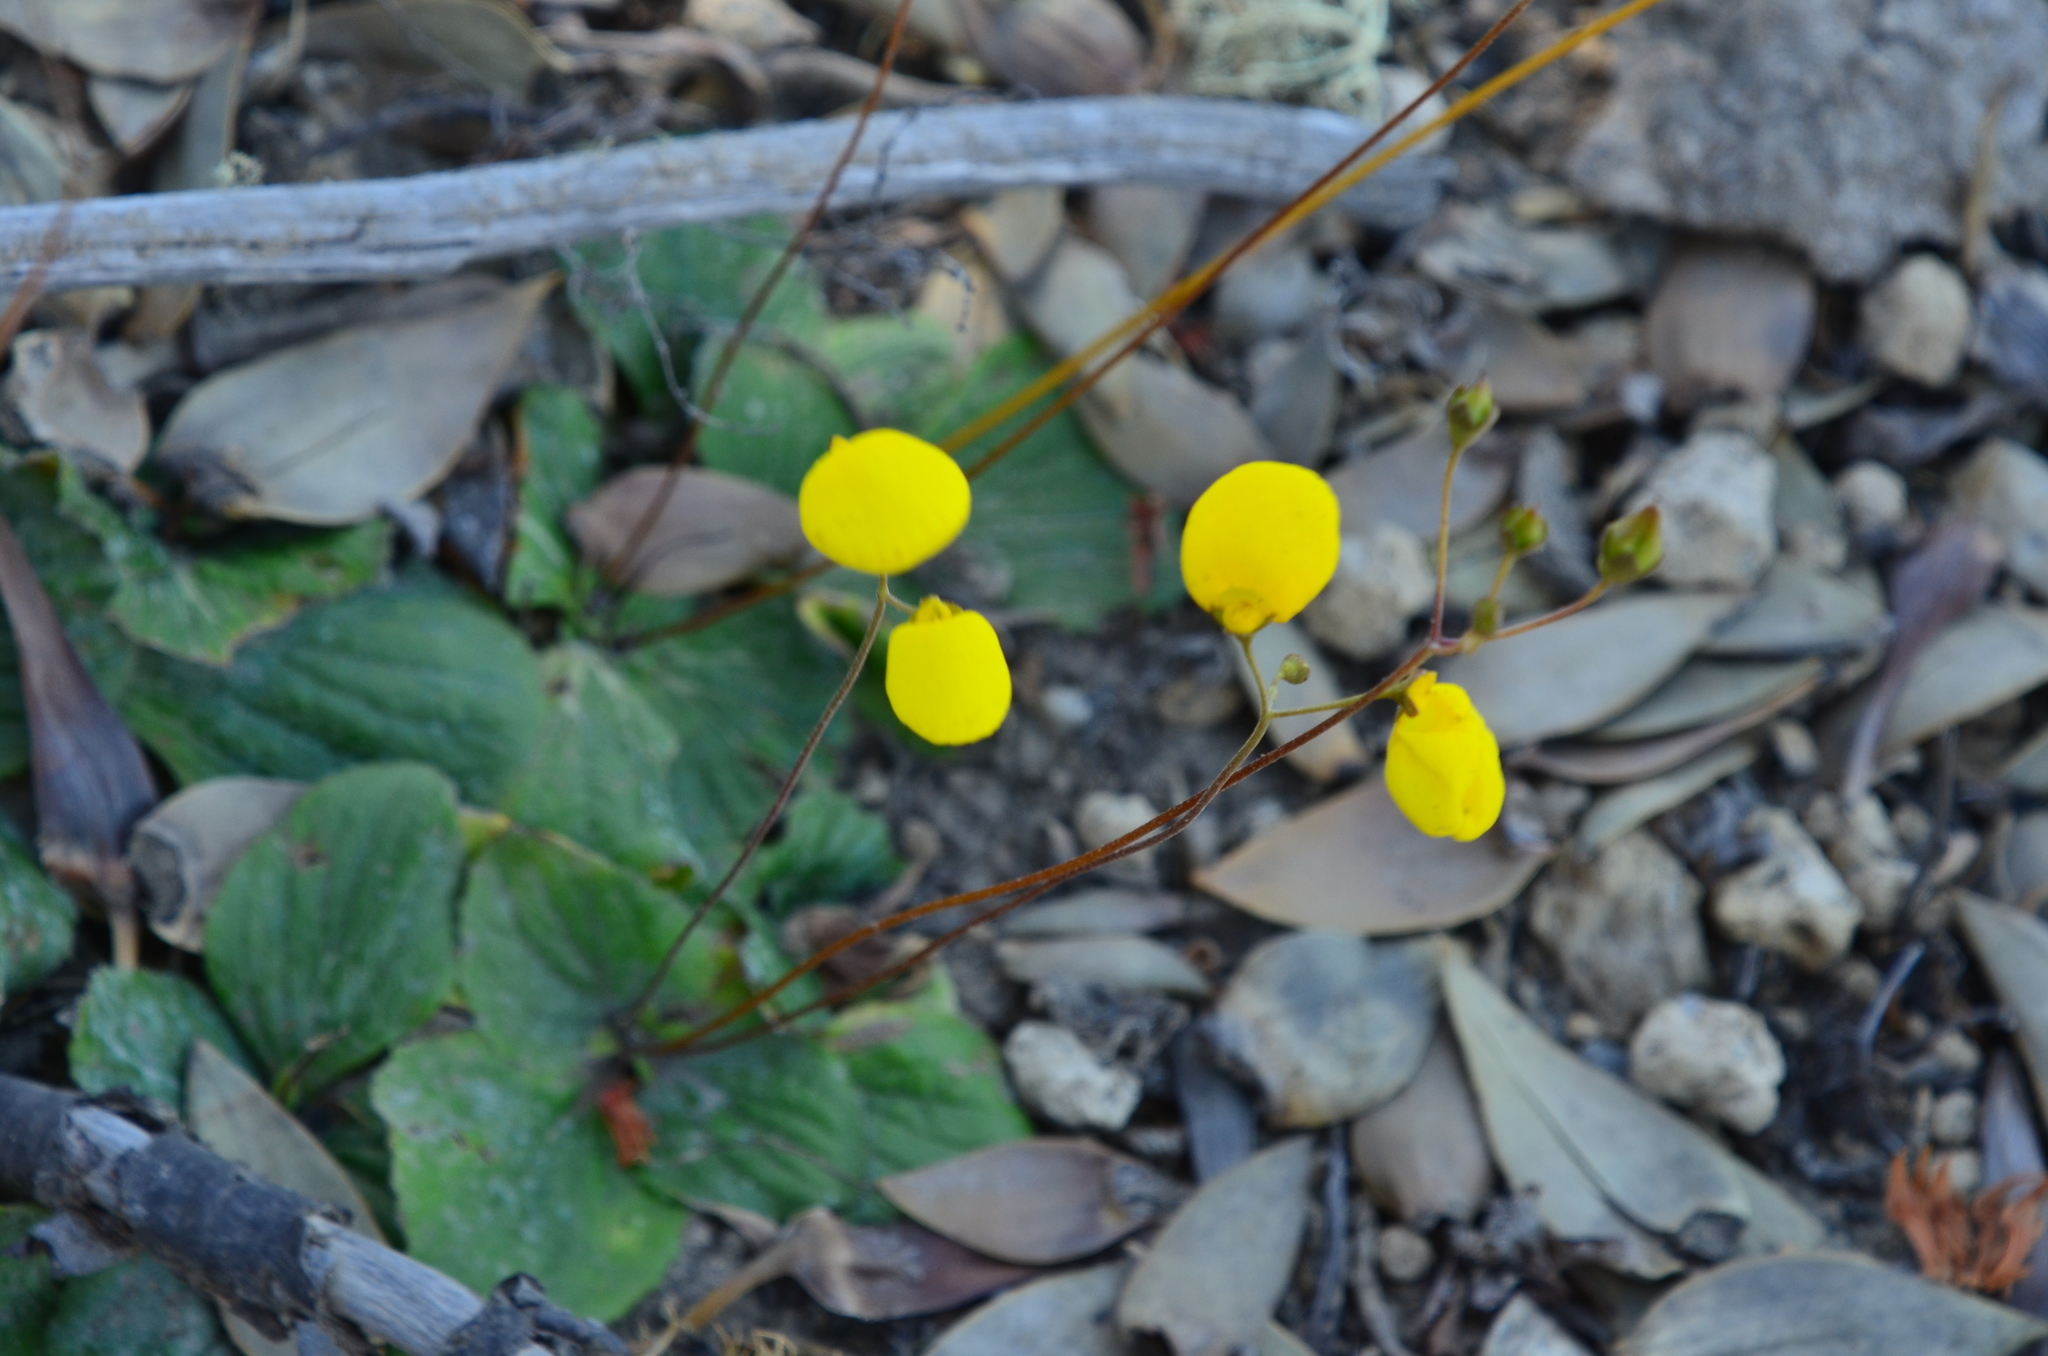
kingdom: Plantae
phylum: Tracheophyta
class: Magnoliopsida
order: Lamiales
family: Calceolariaceae
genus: Calceolaria
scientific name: Calceolaria filicaulis
